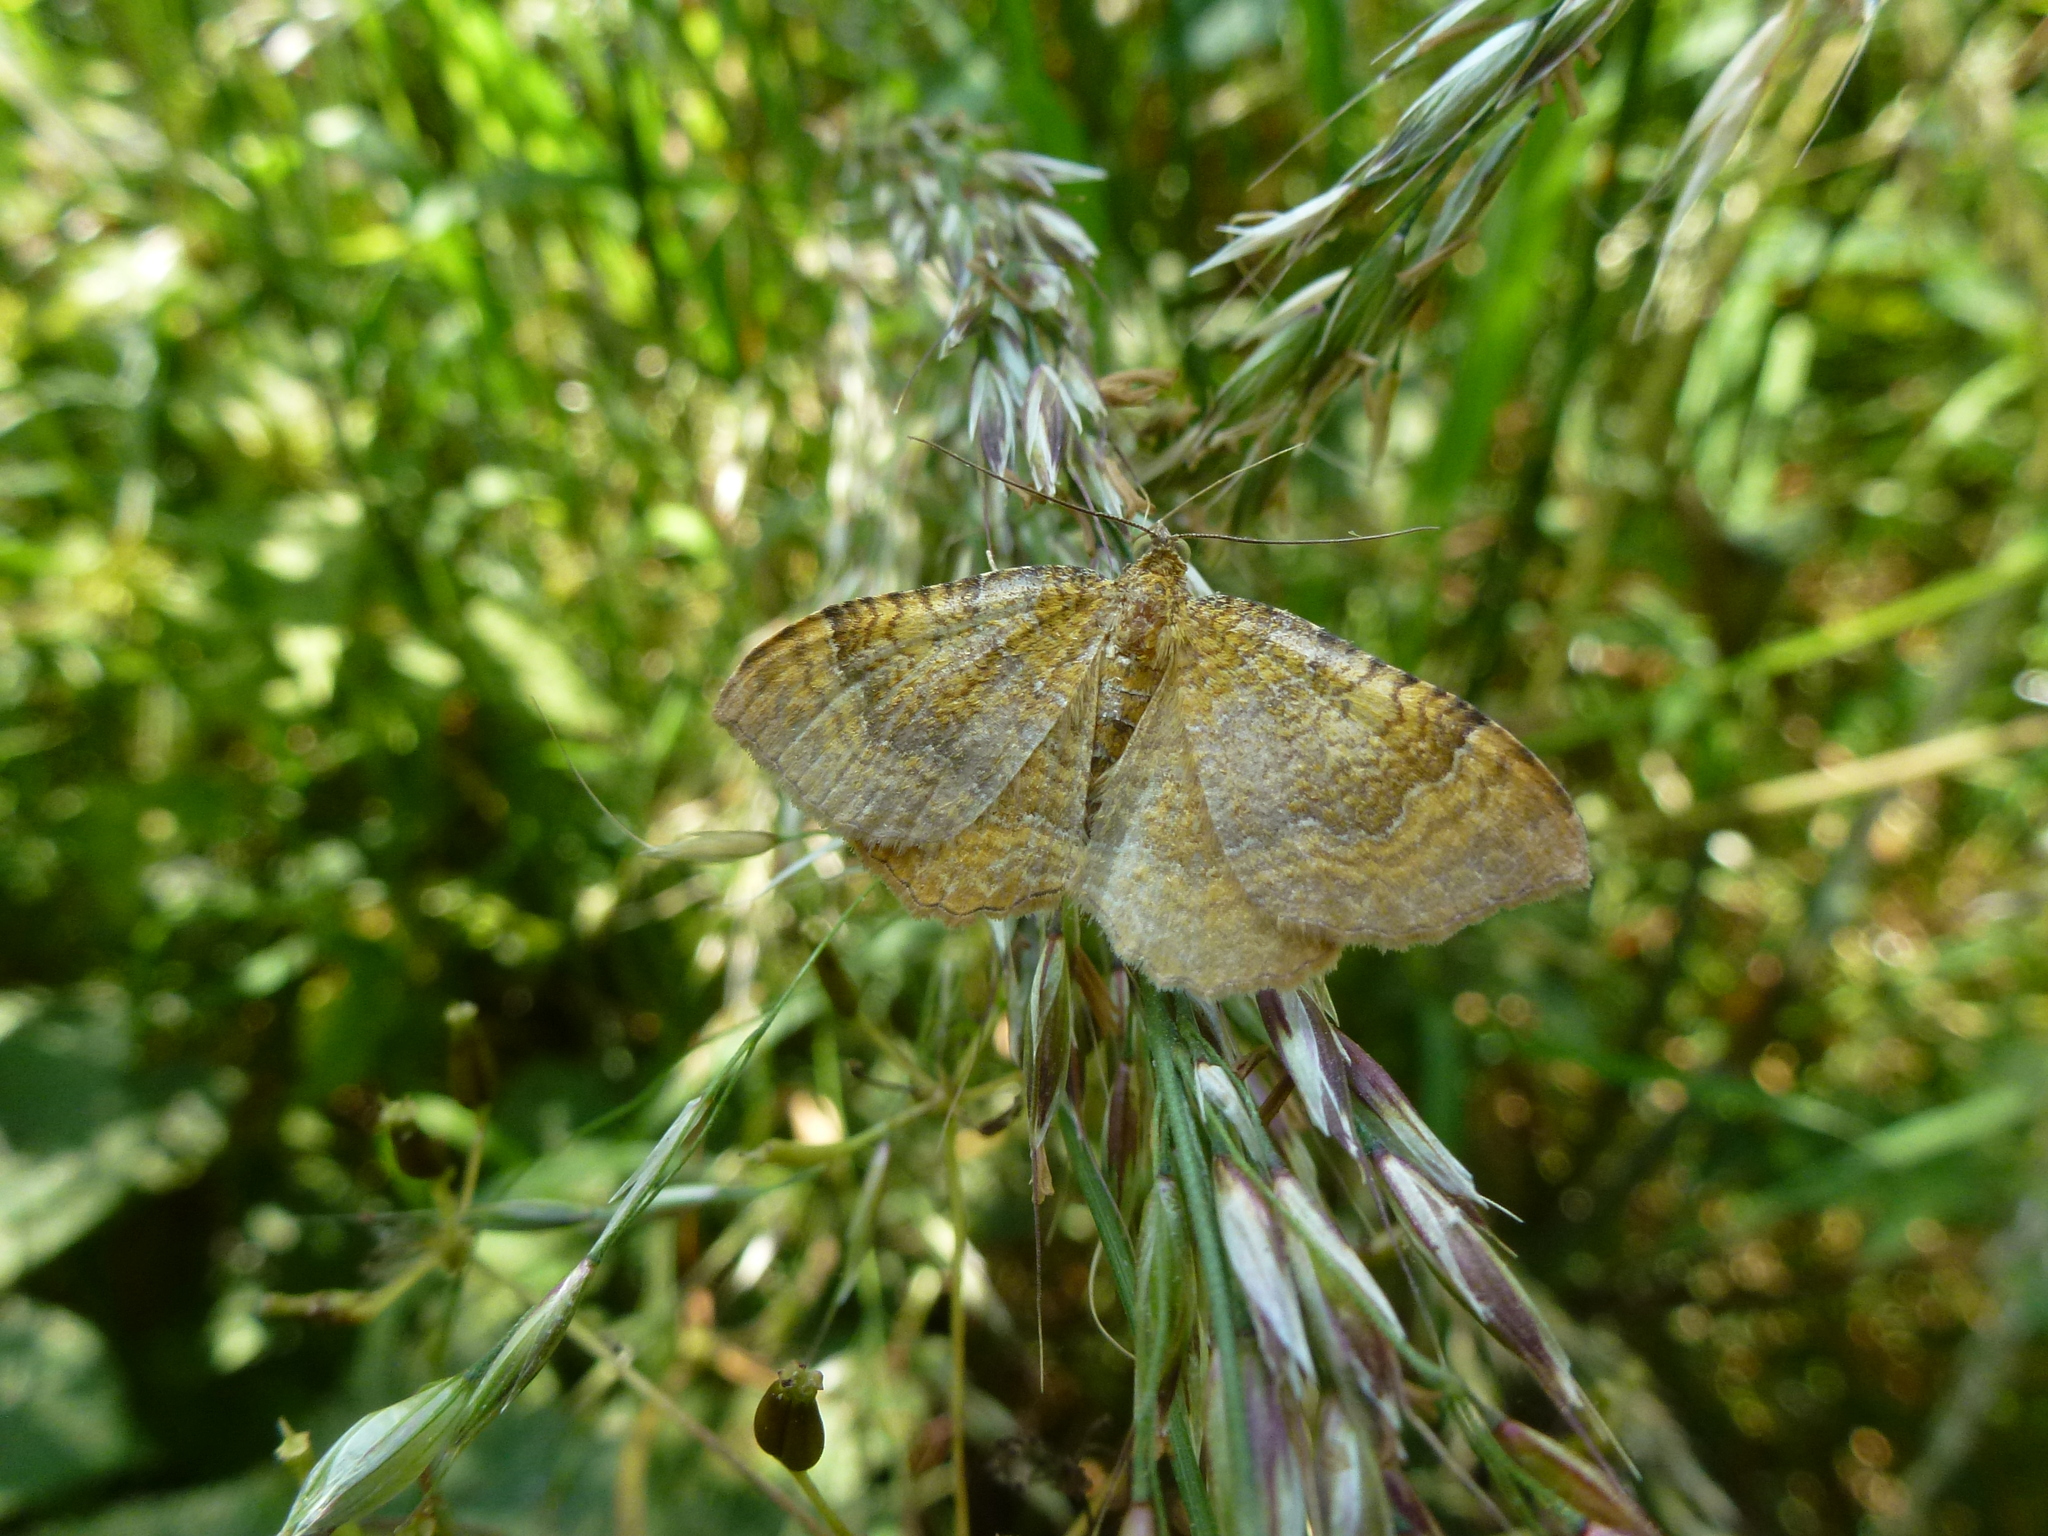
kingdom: Animalia
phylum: Arthropoda
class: Insecta
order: Lepidoptera
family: Geometridae
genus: Camptogramma
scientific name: Camptogramma bilineata
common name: Yellow shell
